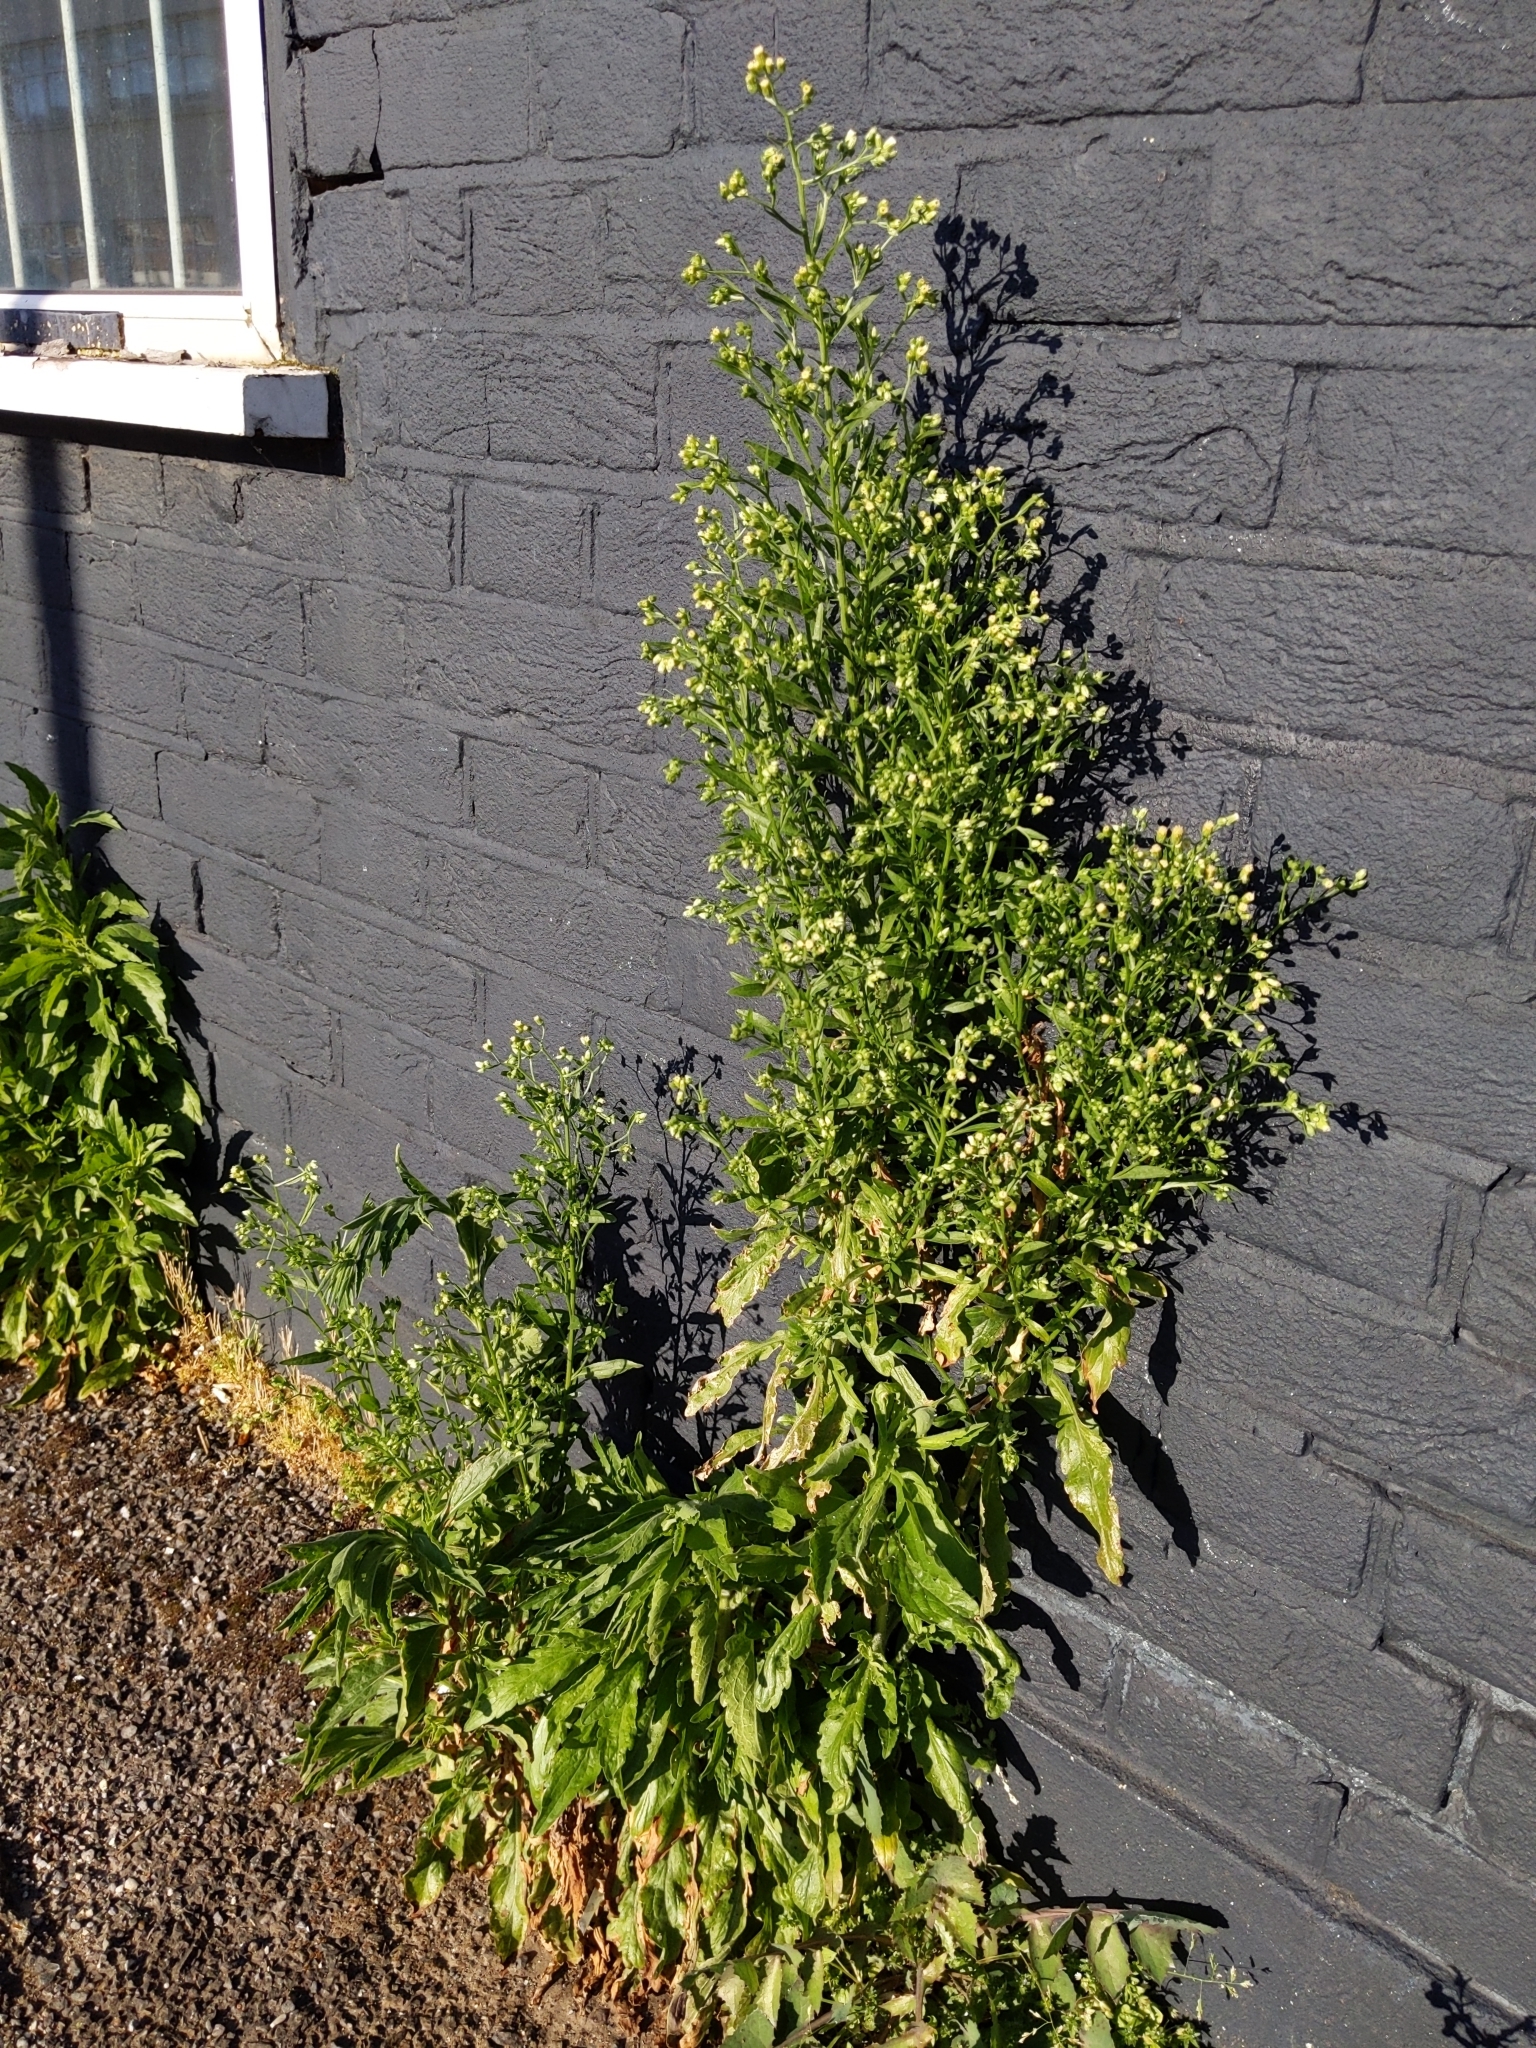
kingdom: Plantae
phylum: Tracheophyta
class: Magnoliopsida
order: Asterales
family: Asteraceae
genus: Erigeron
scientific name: Erigeron sumatrensis
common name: Daisy
